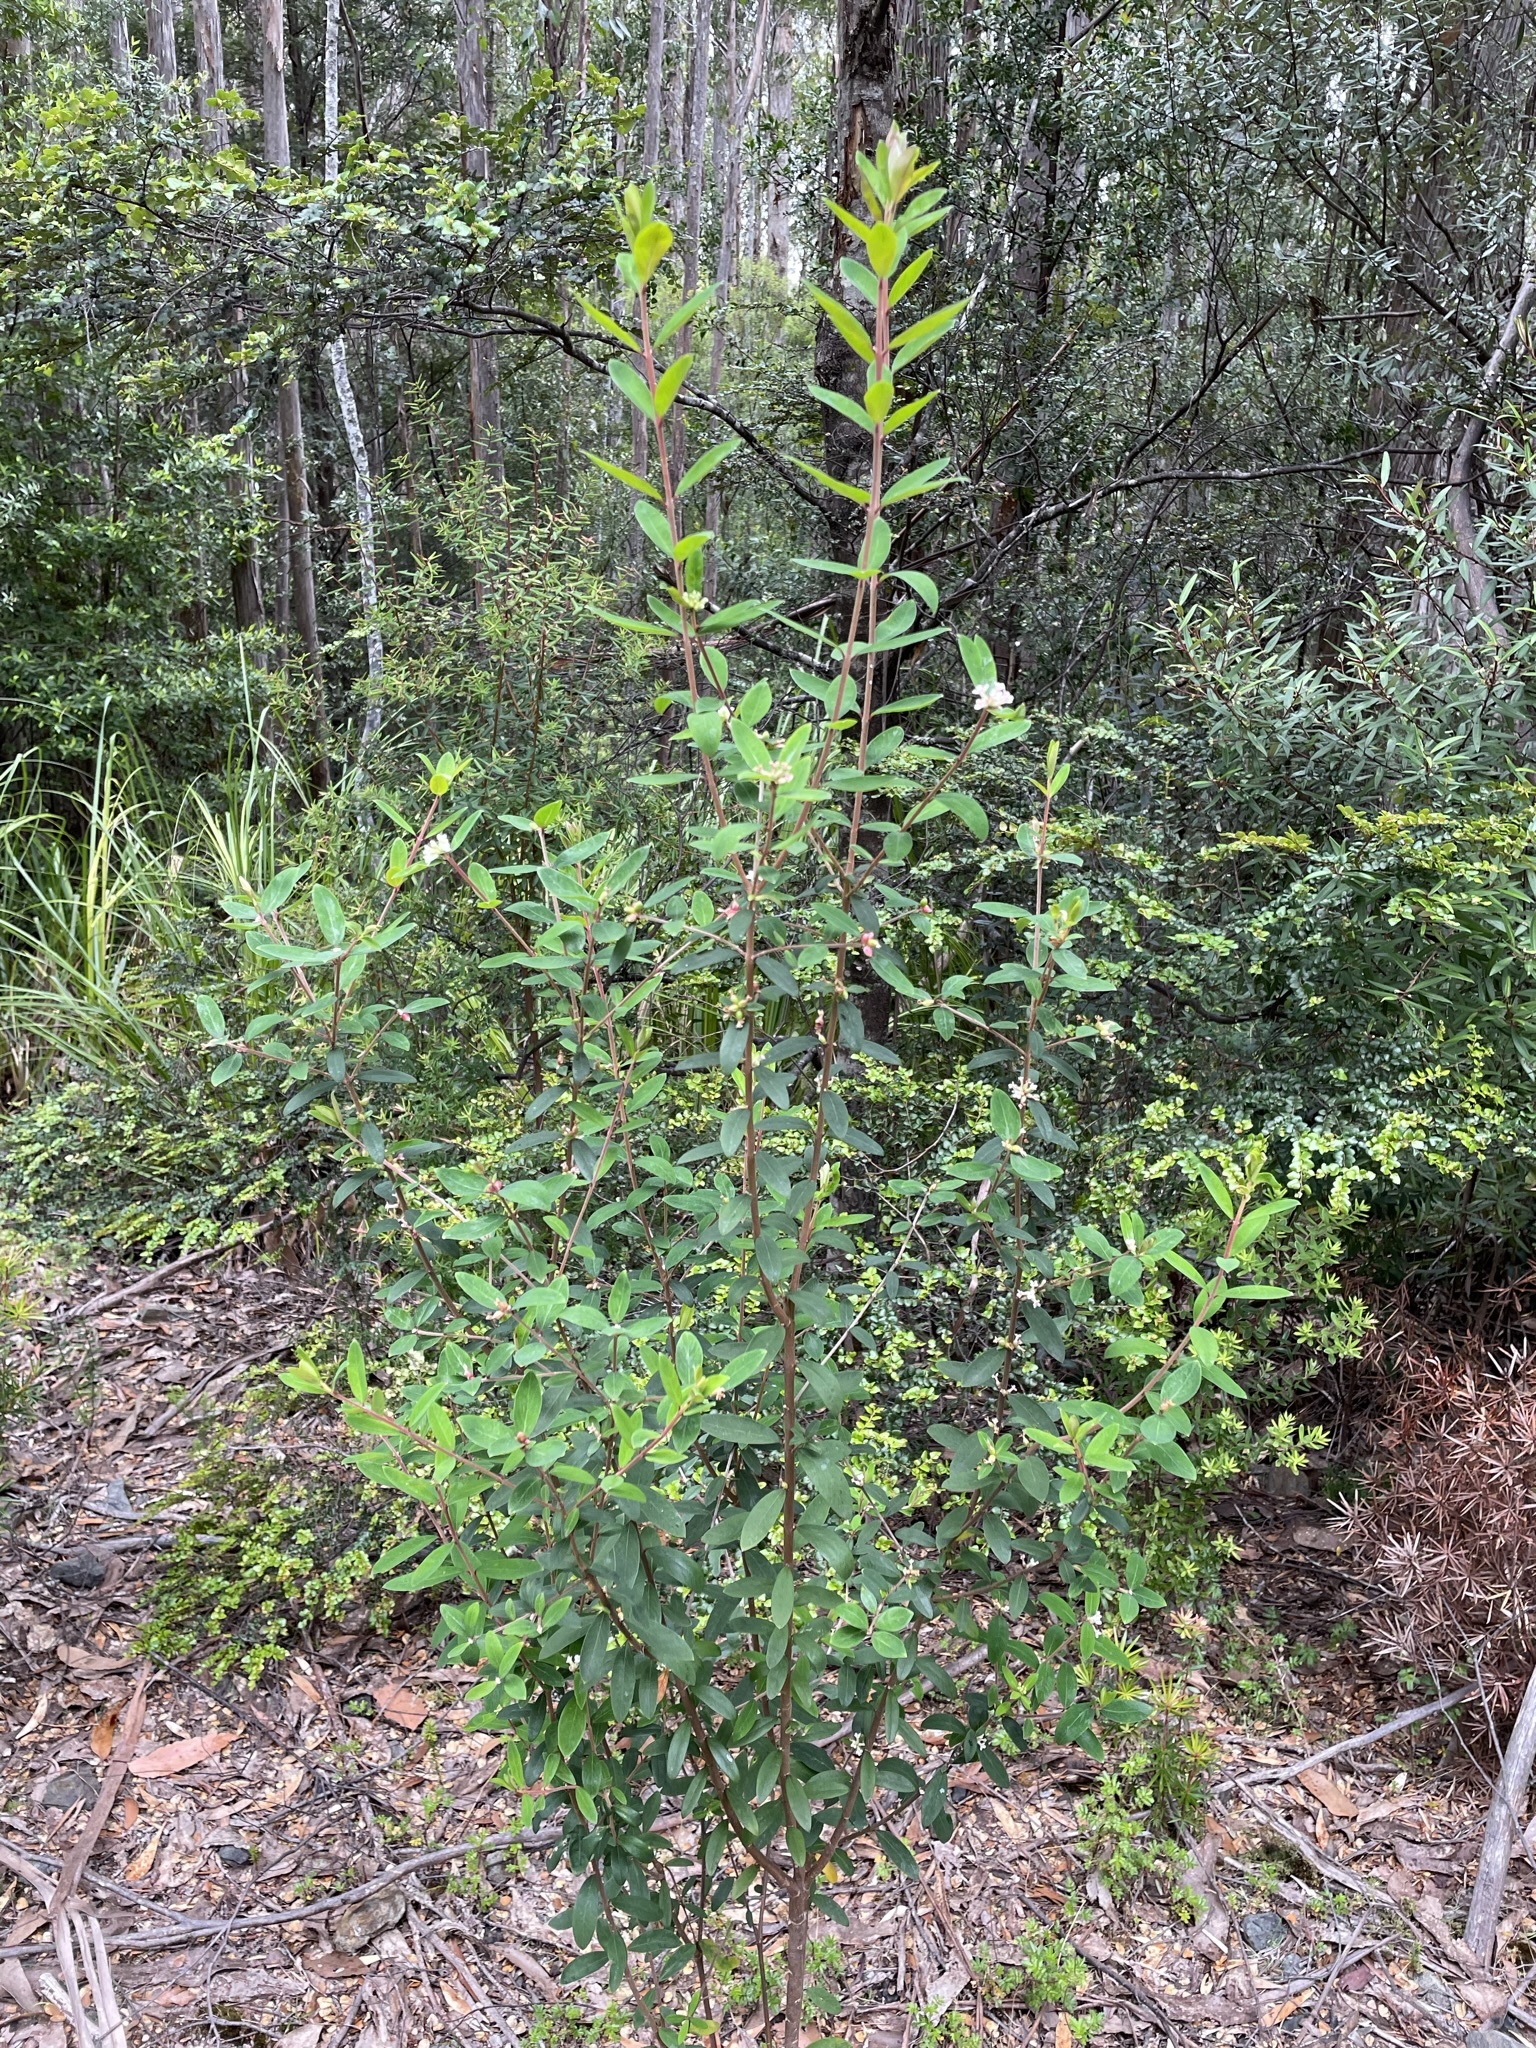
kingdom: Plantae
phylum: Tracheophyta
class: Magnoliopsida
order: Malvales
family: Thymelaeaceae
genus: Pimelea
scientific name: Pimelea drupacea
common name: Cherry riceflower
